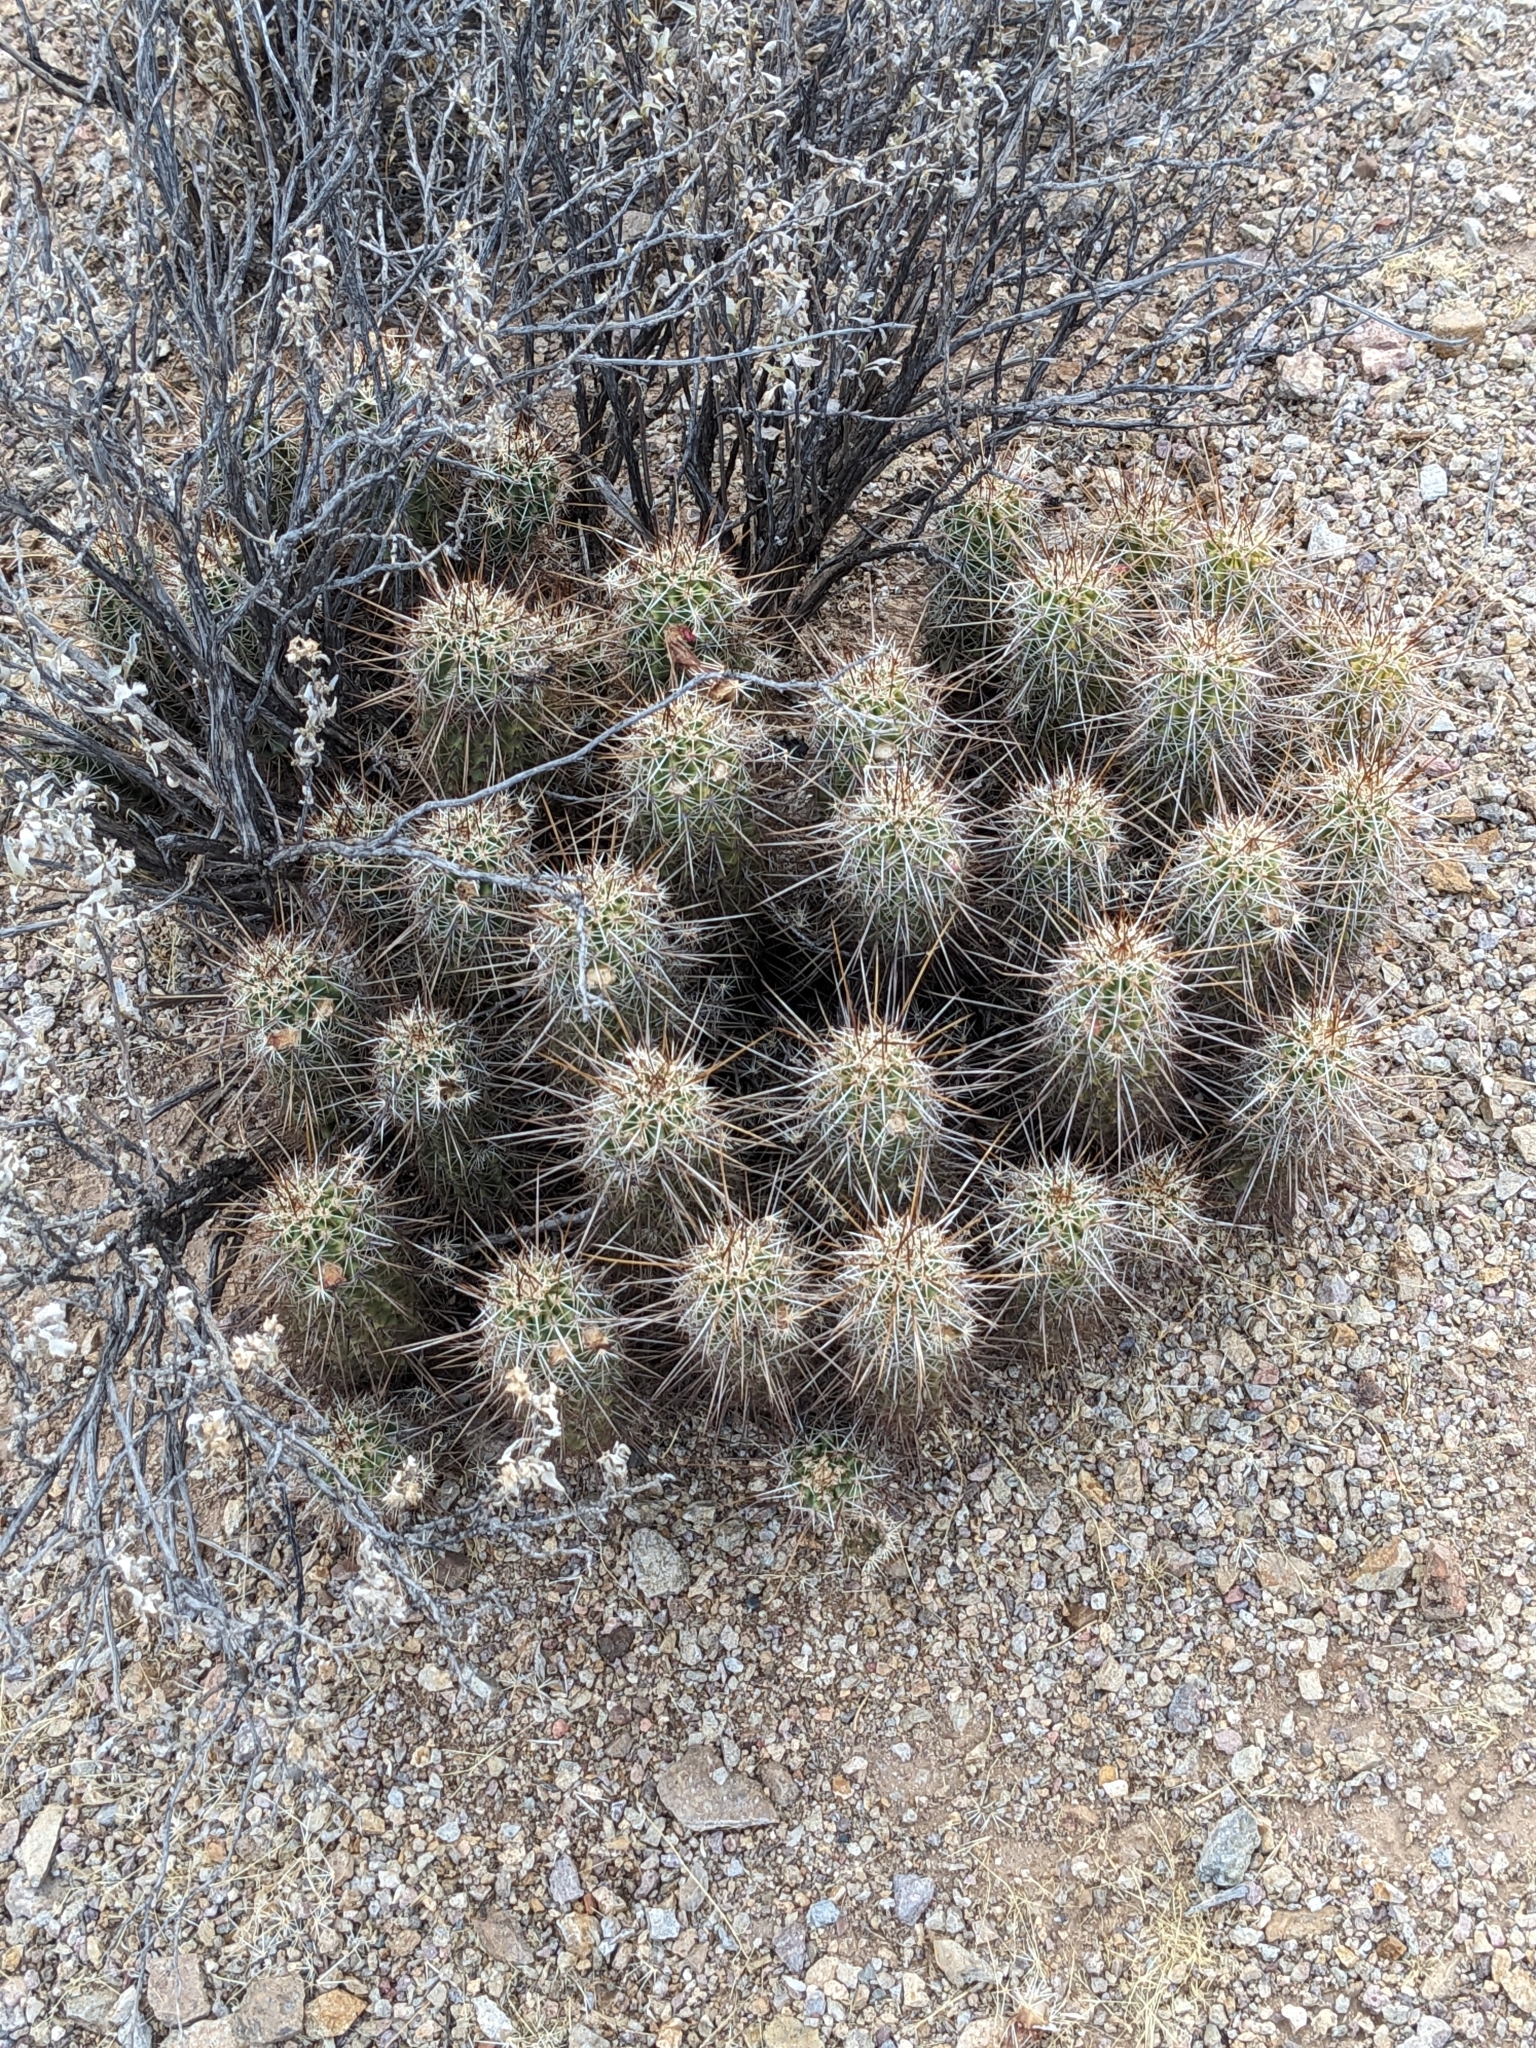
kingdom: Plantae
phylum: Tracheophyta
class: Magnoliopsida
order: Caryophyllales
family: Cactaceae
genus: Echinocereus
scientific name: Echinocereus fasciculatus
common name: Bundle hedgehog
